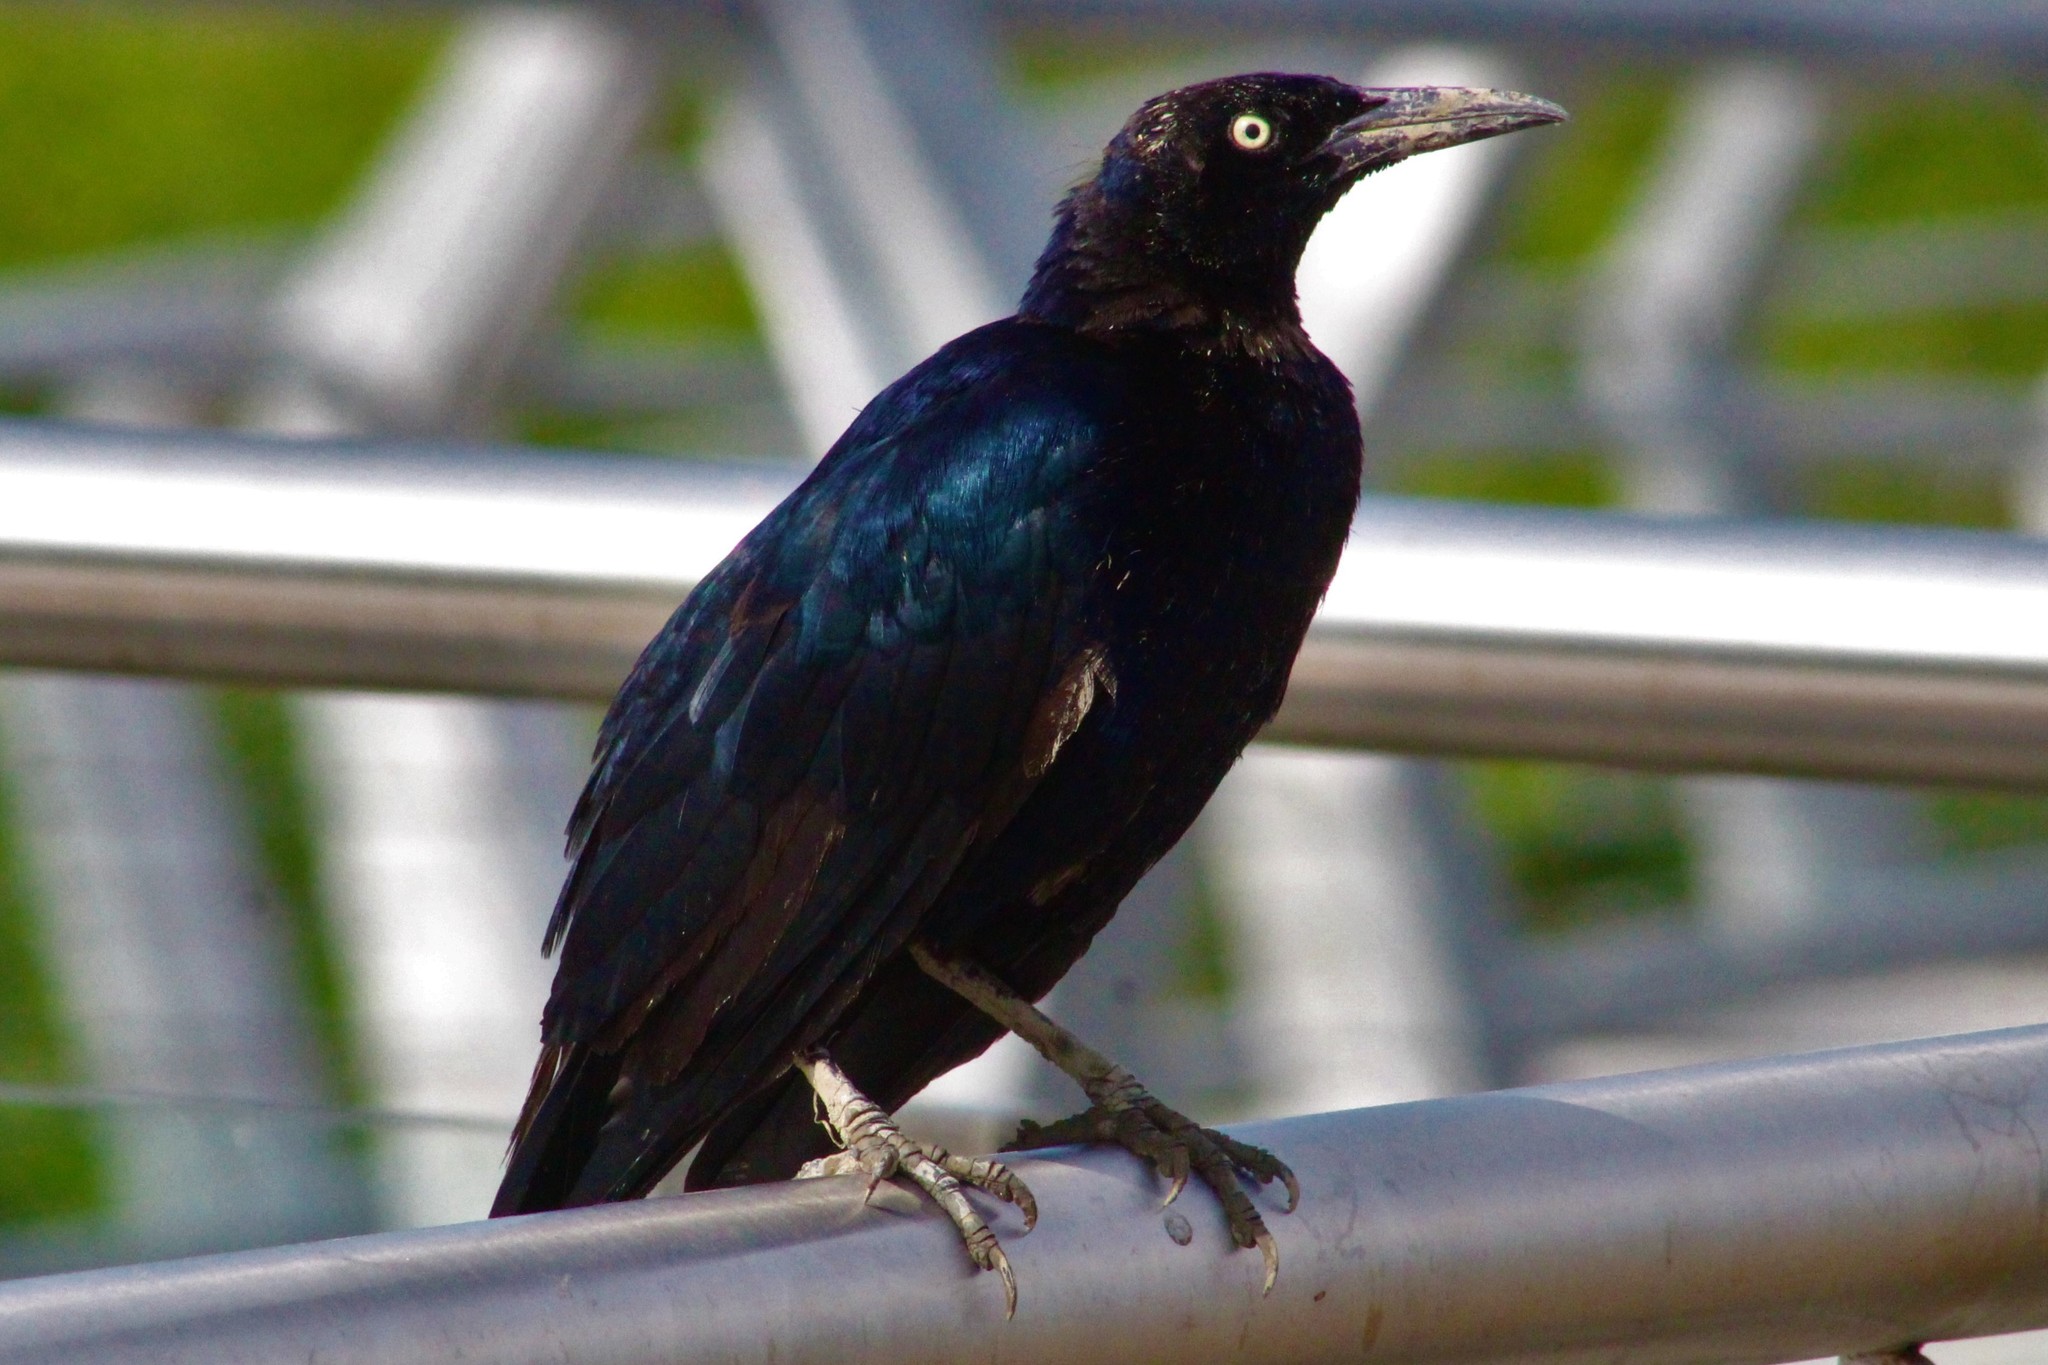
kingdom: Animalia
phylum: Chordata
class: Aves
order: Passeriformes
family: Icteridae
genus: Quiscalus
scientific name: Quiscalus mexicanus
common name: Great-tailed grackle
